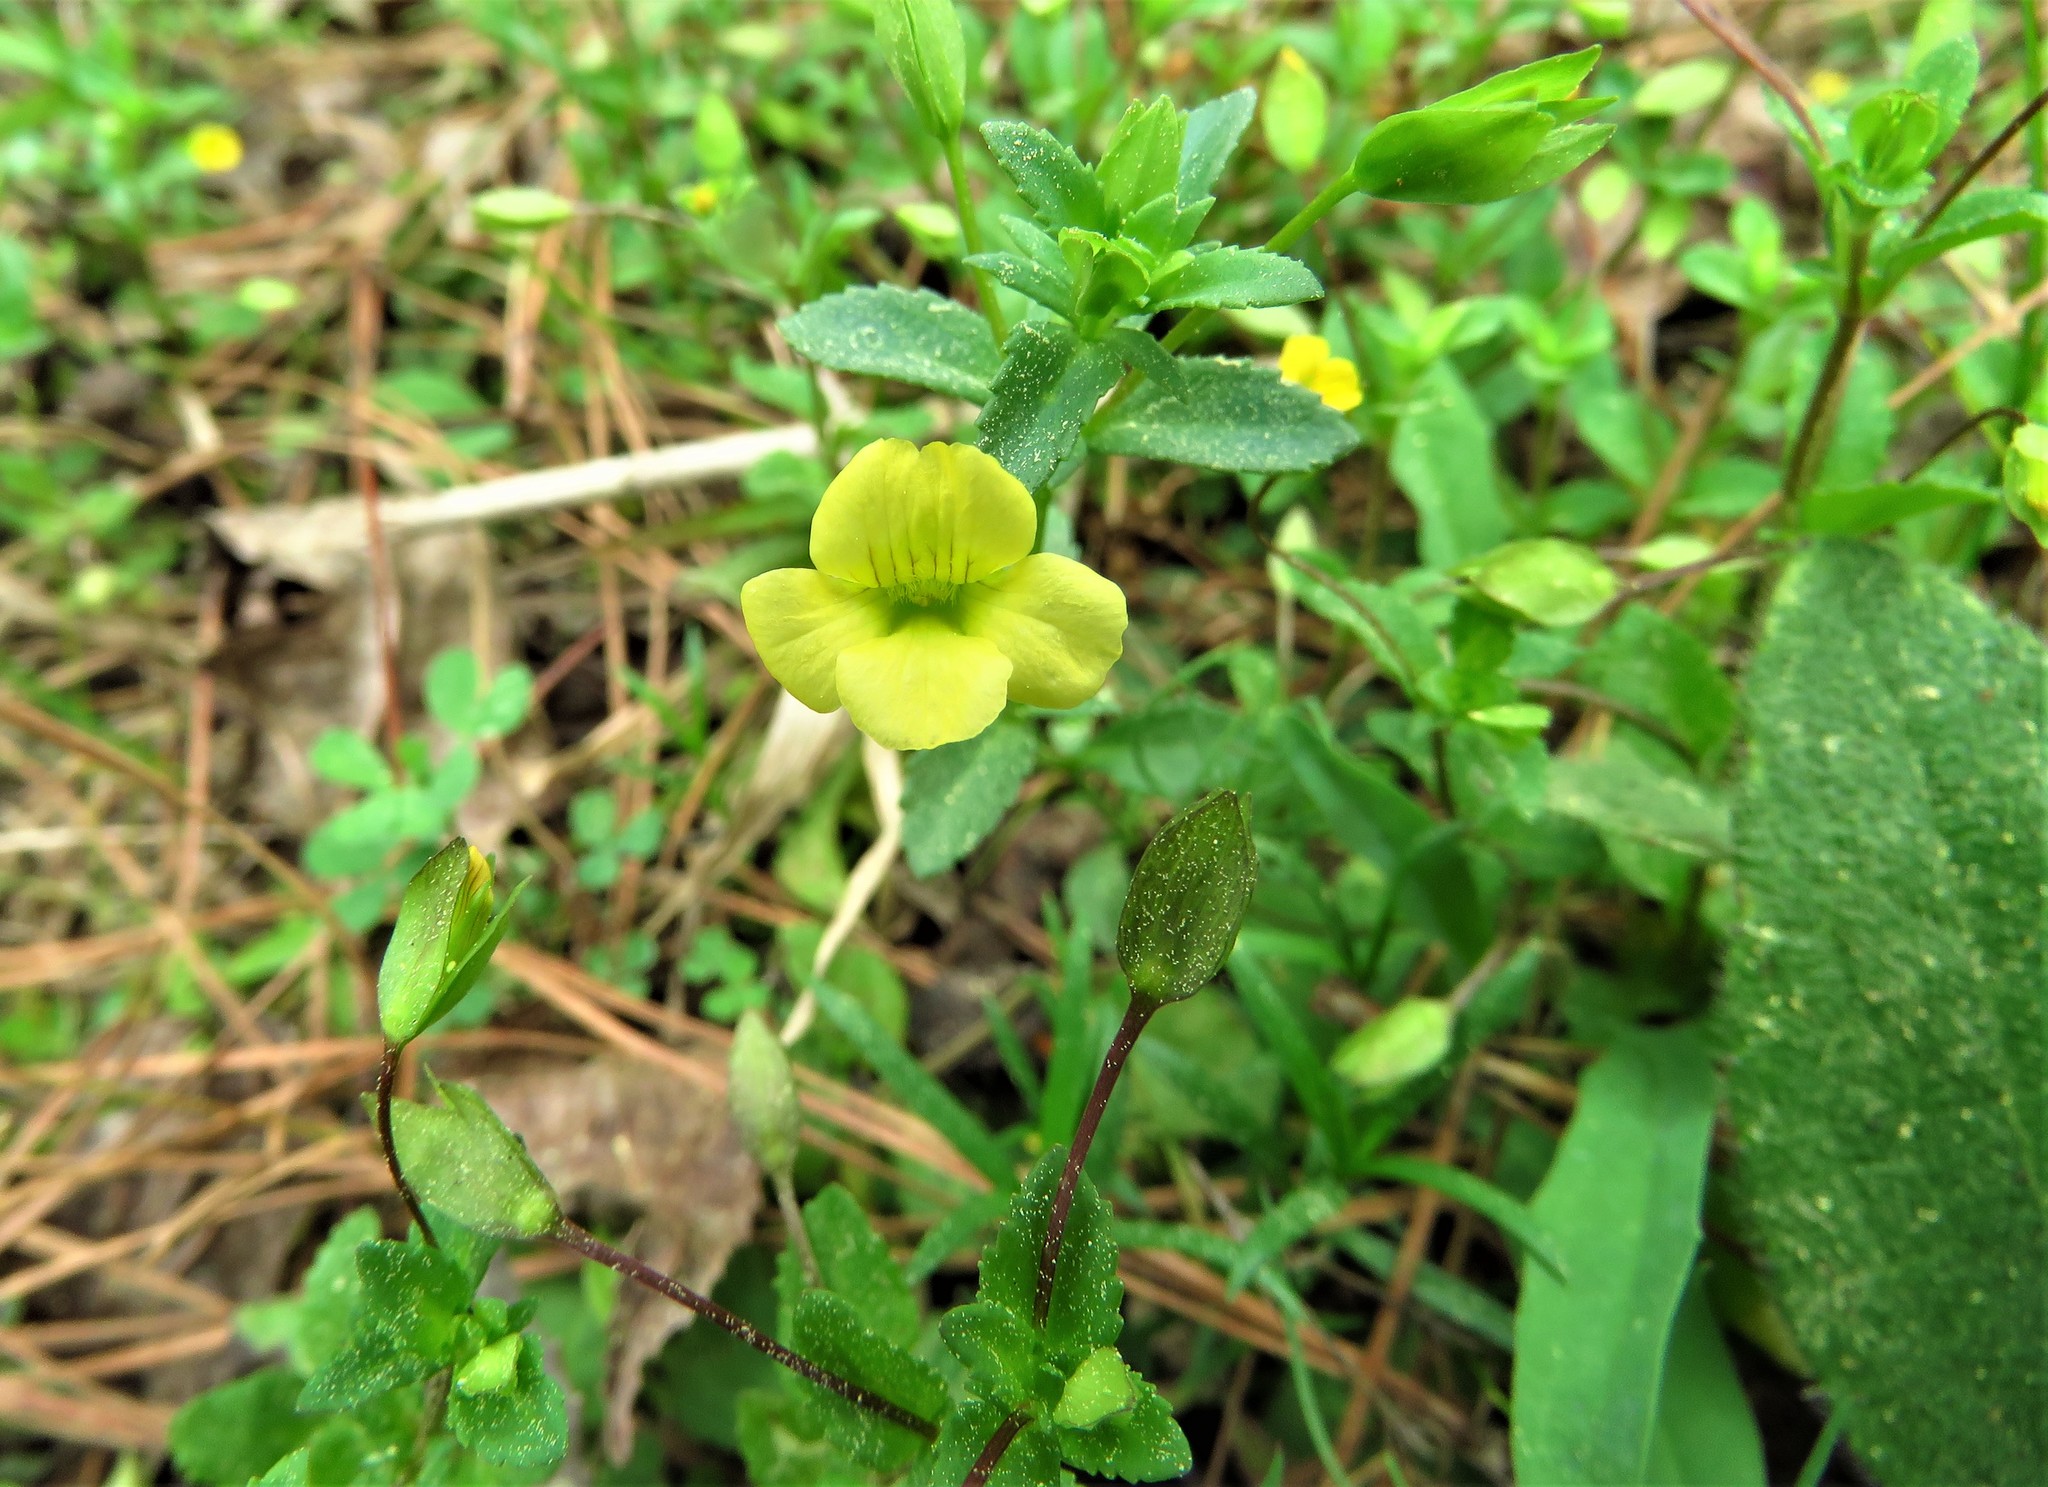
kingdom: Plantae
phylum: Tracheophyta
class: Magnoliopsida
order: Lamiales
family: Plantaginaceae
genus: Mecardonia
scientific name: Mecardonia procumbens
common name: Baby jump-up
